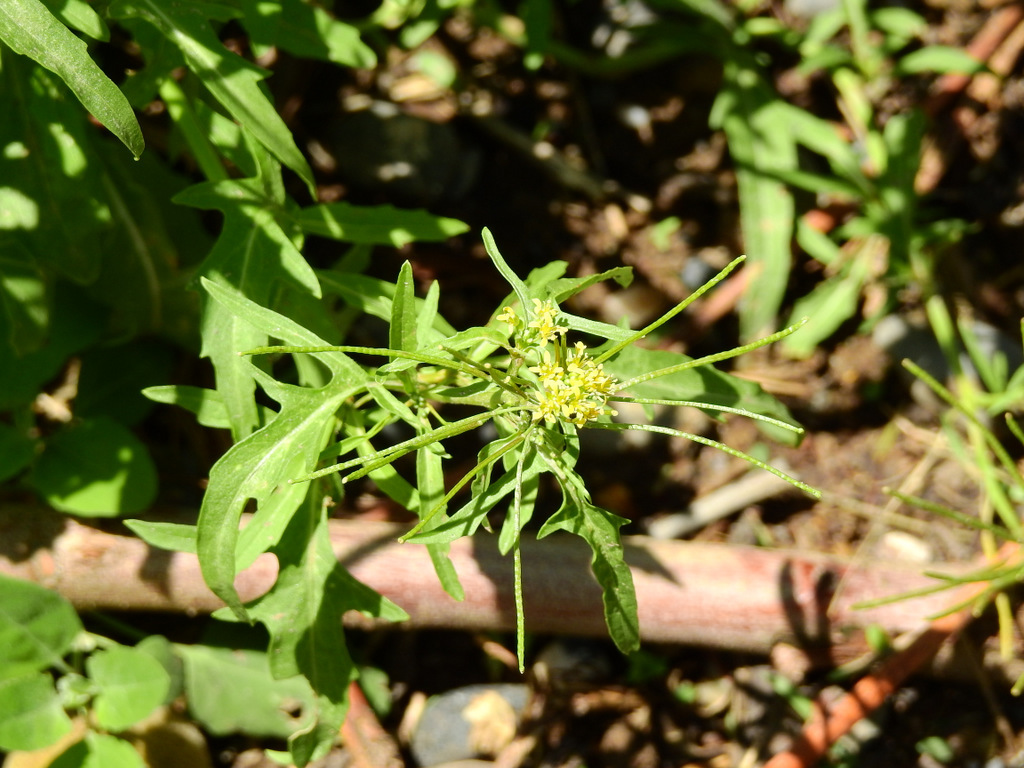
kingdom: Plantae
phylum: Tracheophyta
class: Magnoliopsida
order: Brassicales
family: Brassicaceae
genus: Sisymbrium
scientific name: Sisymbrium irio
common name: London rocket
